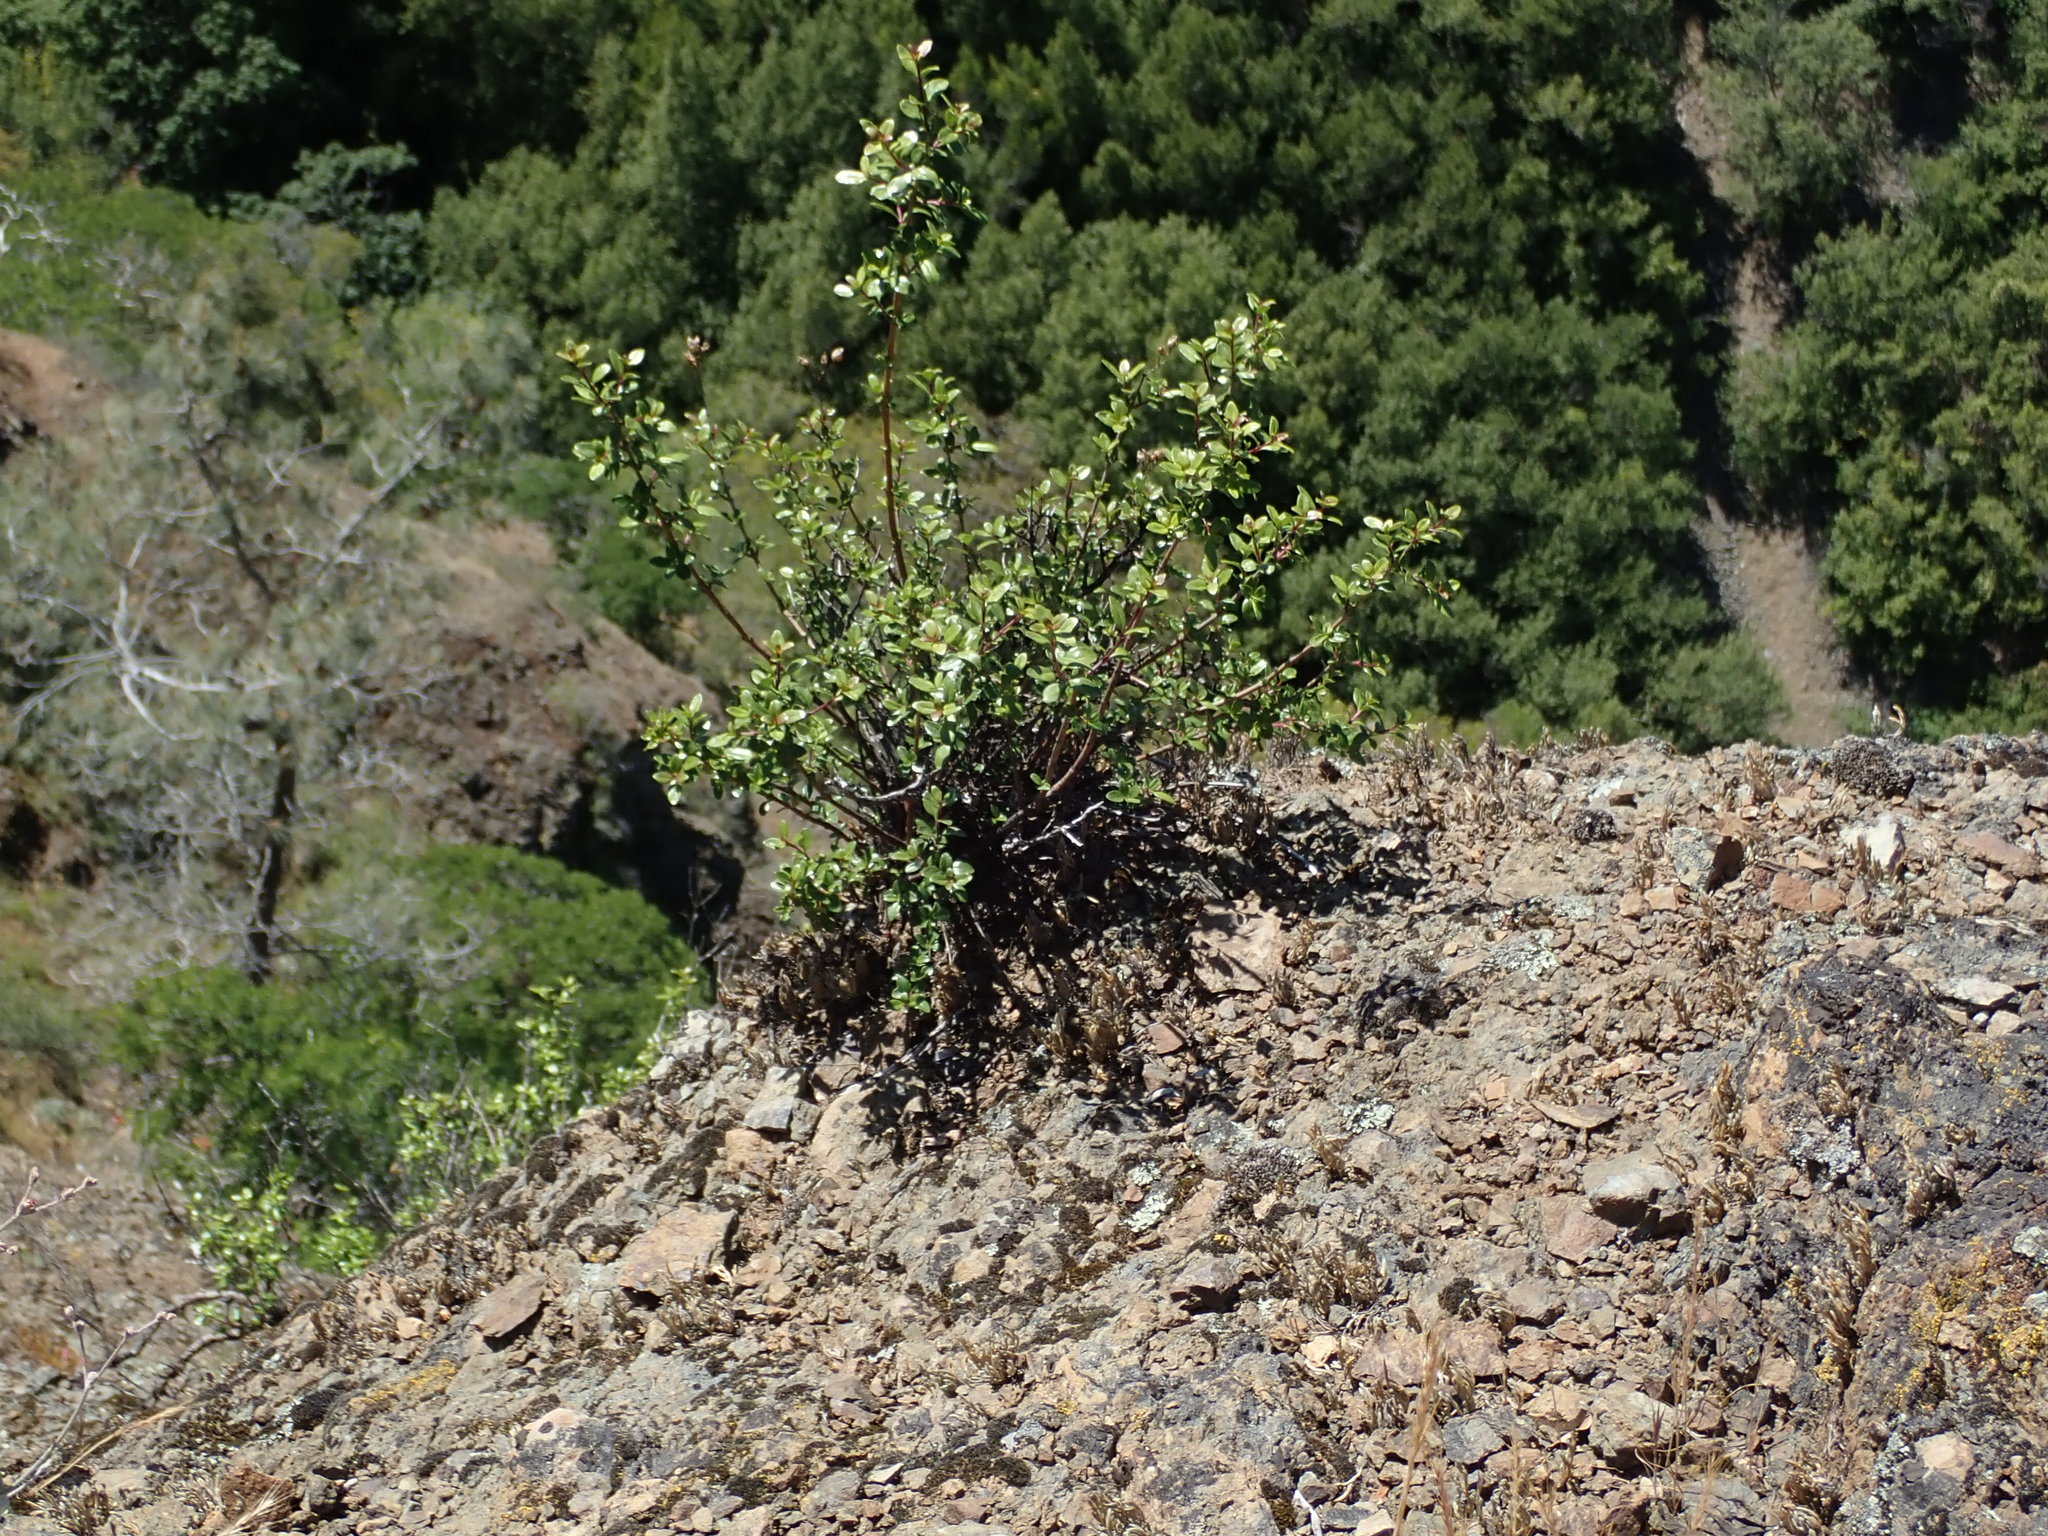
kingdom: Plantae
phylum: Tracheophyta
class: Magnoliopsida
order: Lamiales
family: Plantaginaceae
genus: Keckiella
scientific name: Keckiella corymbosa
